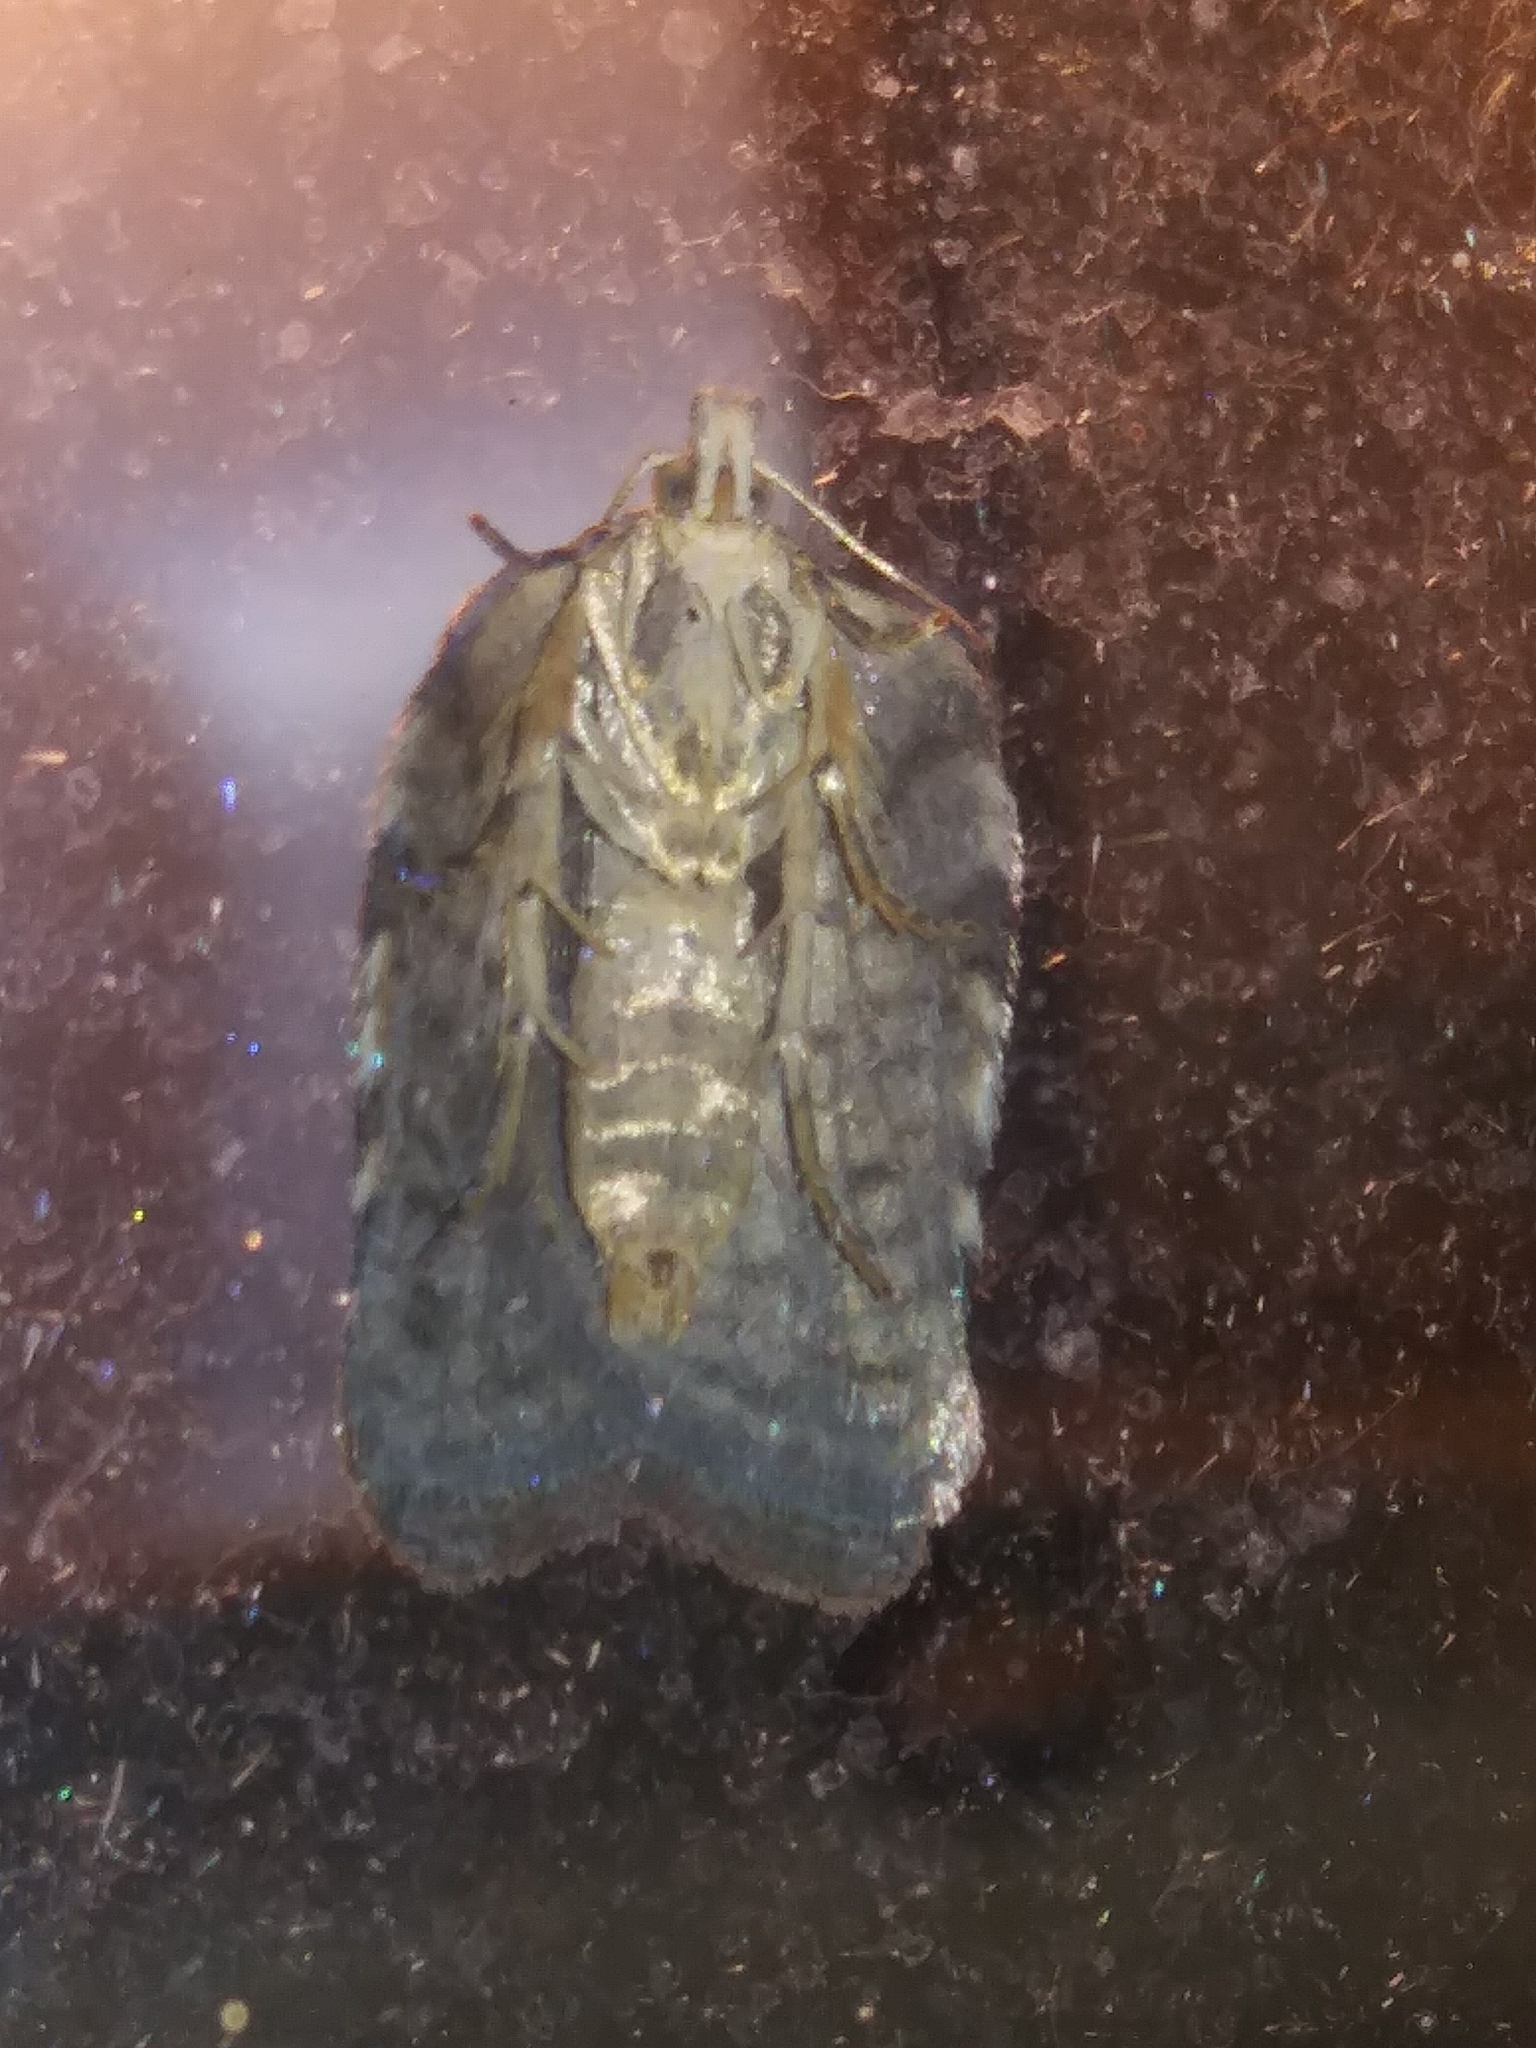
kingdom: Animalia
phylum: Arthropoda
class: Insecta
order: Lepidoptera
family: Tortricidae
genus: Acleris
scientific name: Acleris chalybeana
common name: Lesser maple leafroller
